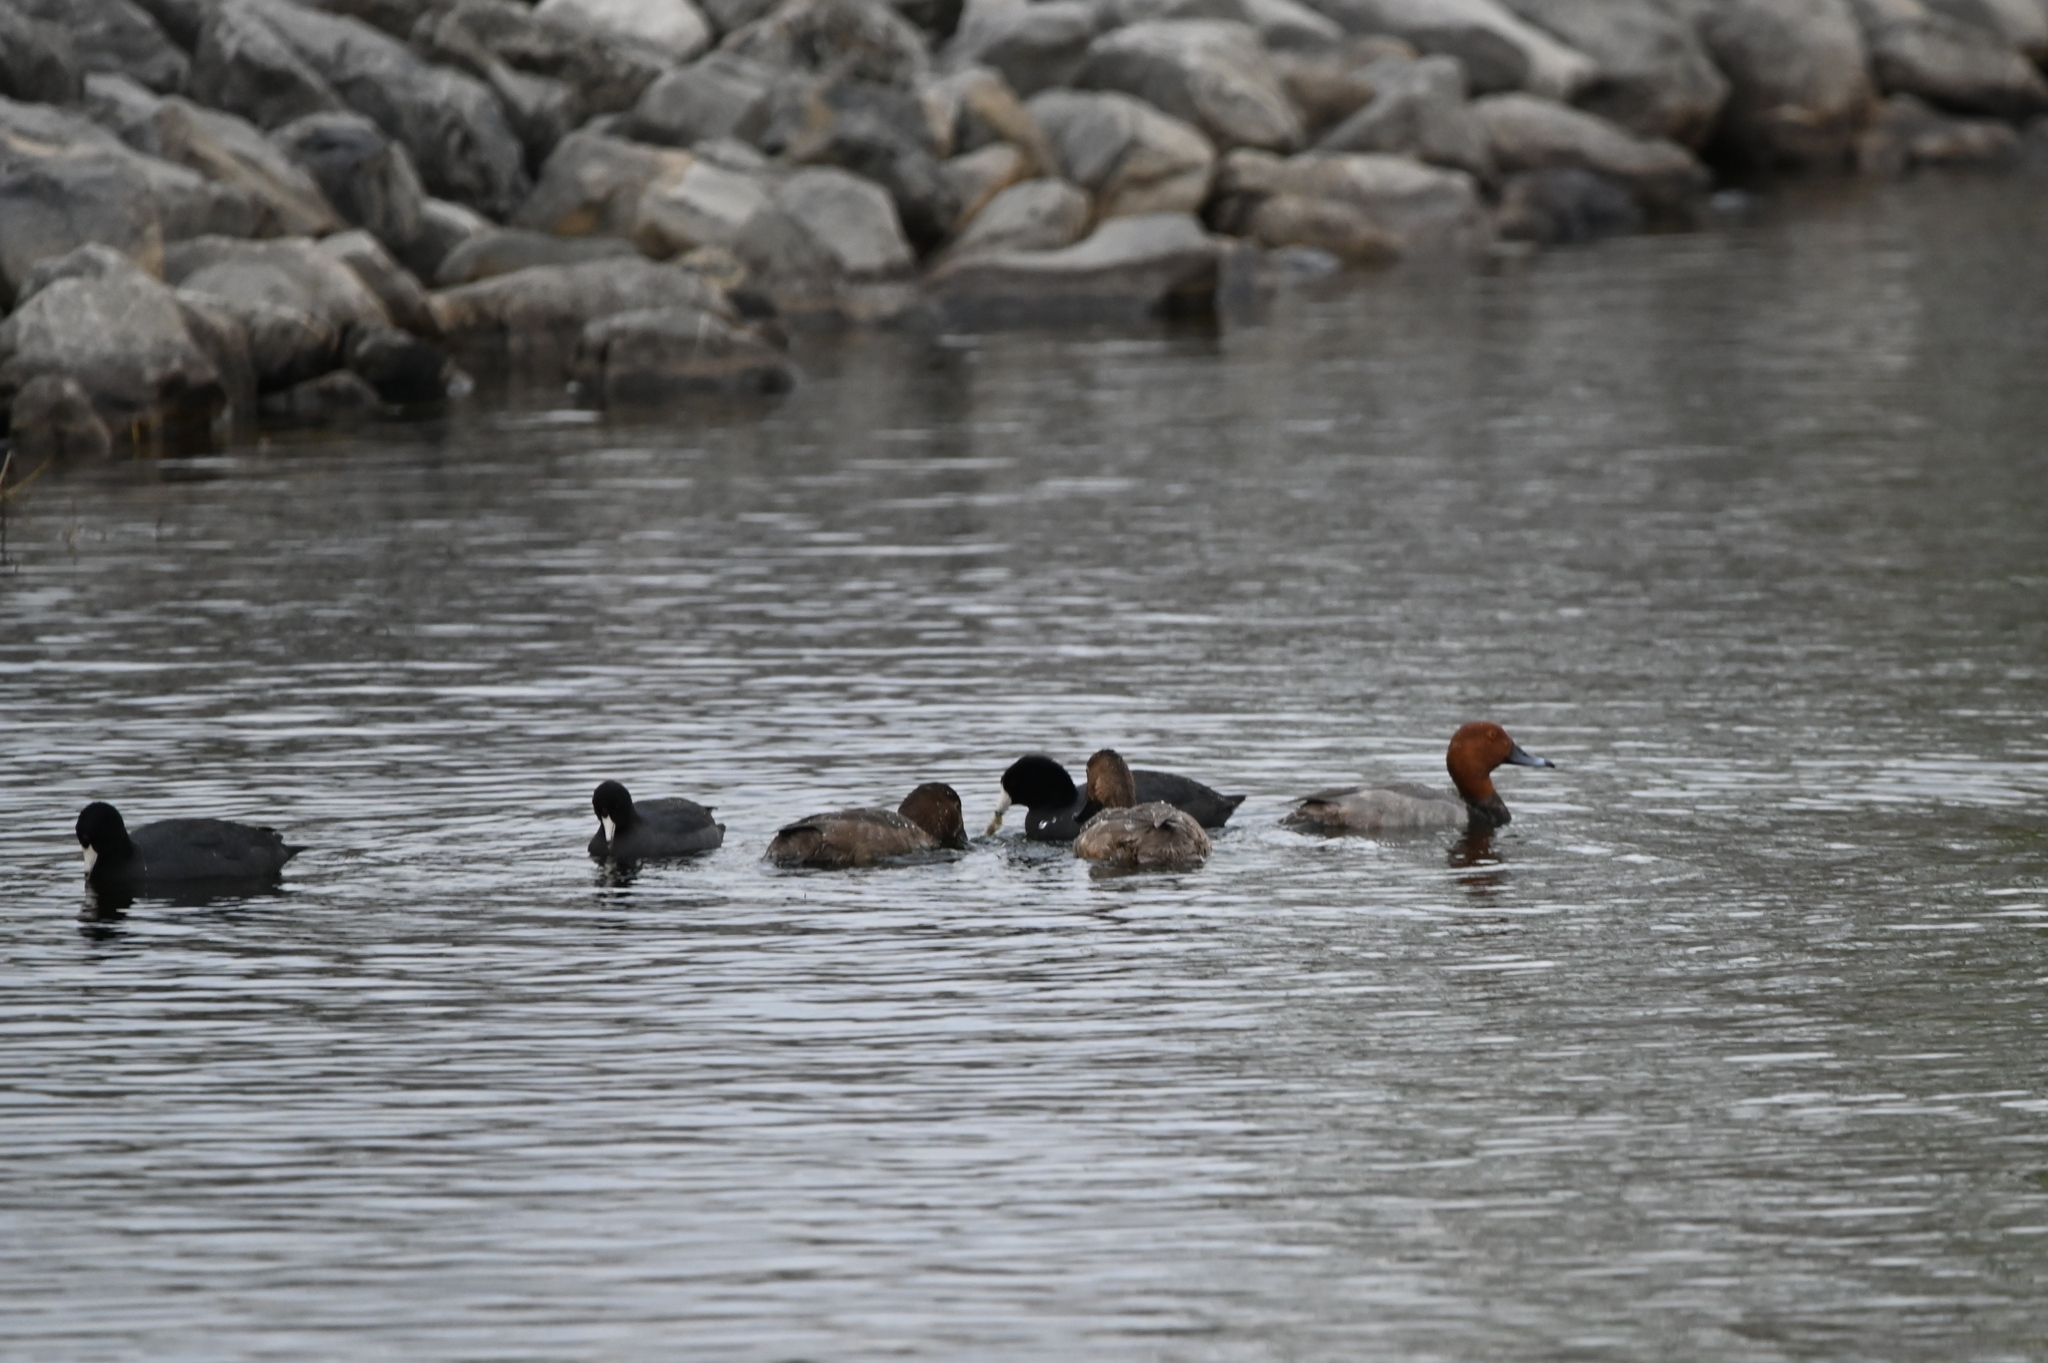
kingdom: Animalia
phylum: Chordata
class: Aves
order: Anseriformes
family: Anatidae
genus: Aythya
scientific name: Aythya americana
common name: Redhead
